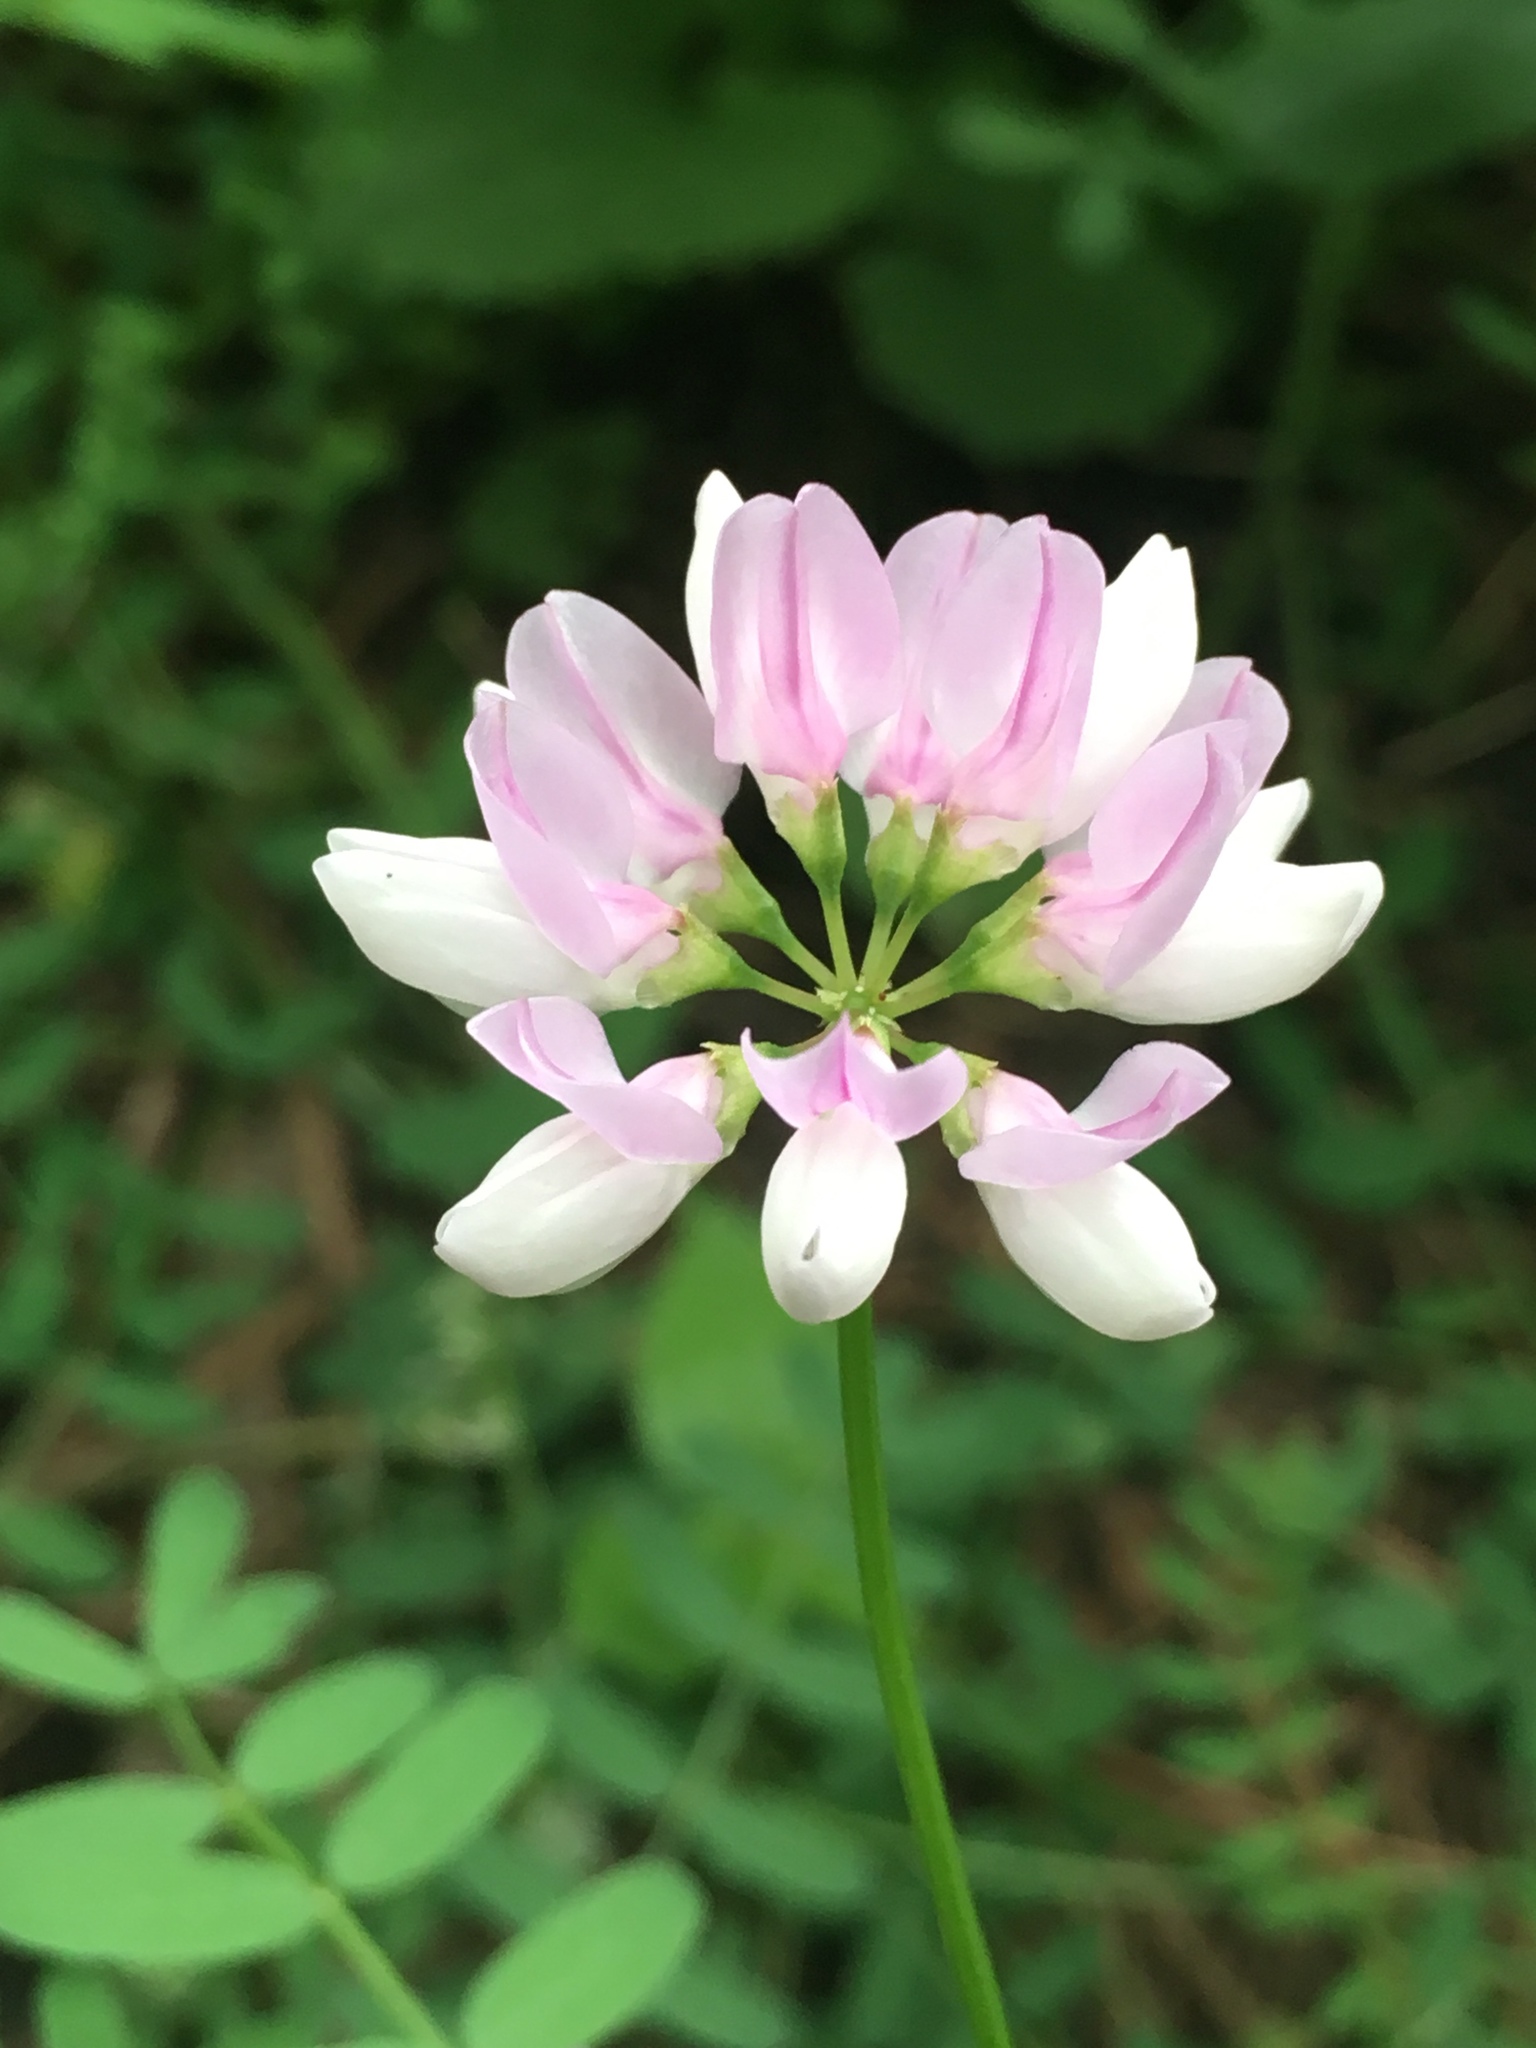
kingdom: Plantae
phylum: Tracheophyta
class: Magnoliopsida
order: Fabales
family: Fabaceae
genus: Coronilla
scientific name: Coronilla varia
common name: Crownvetch
